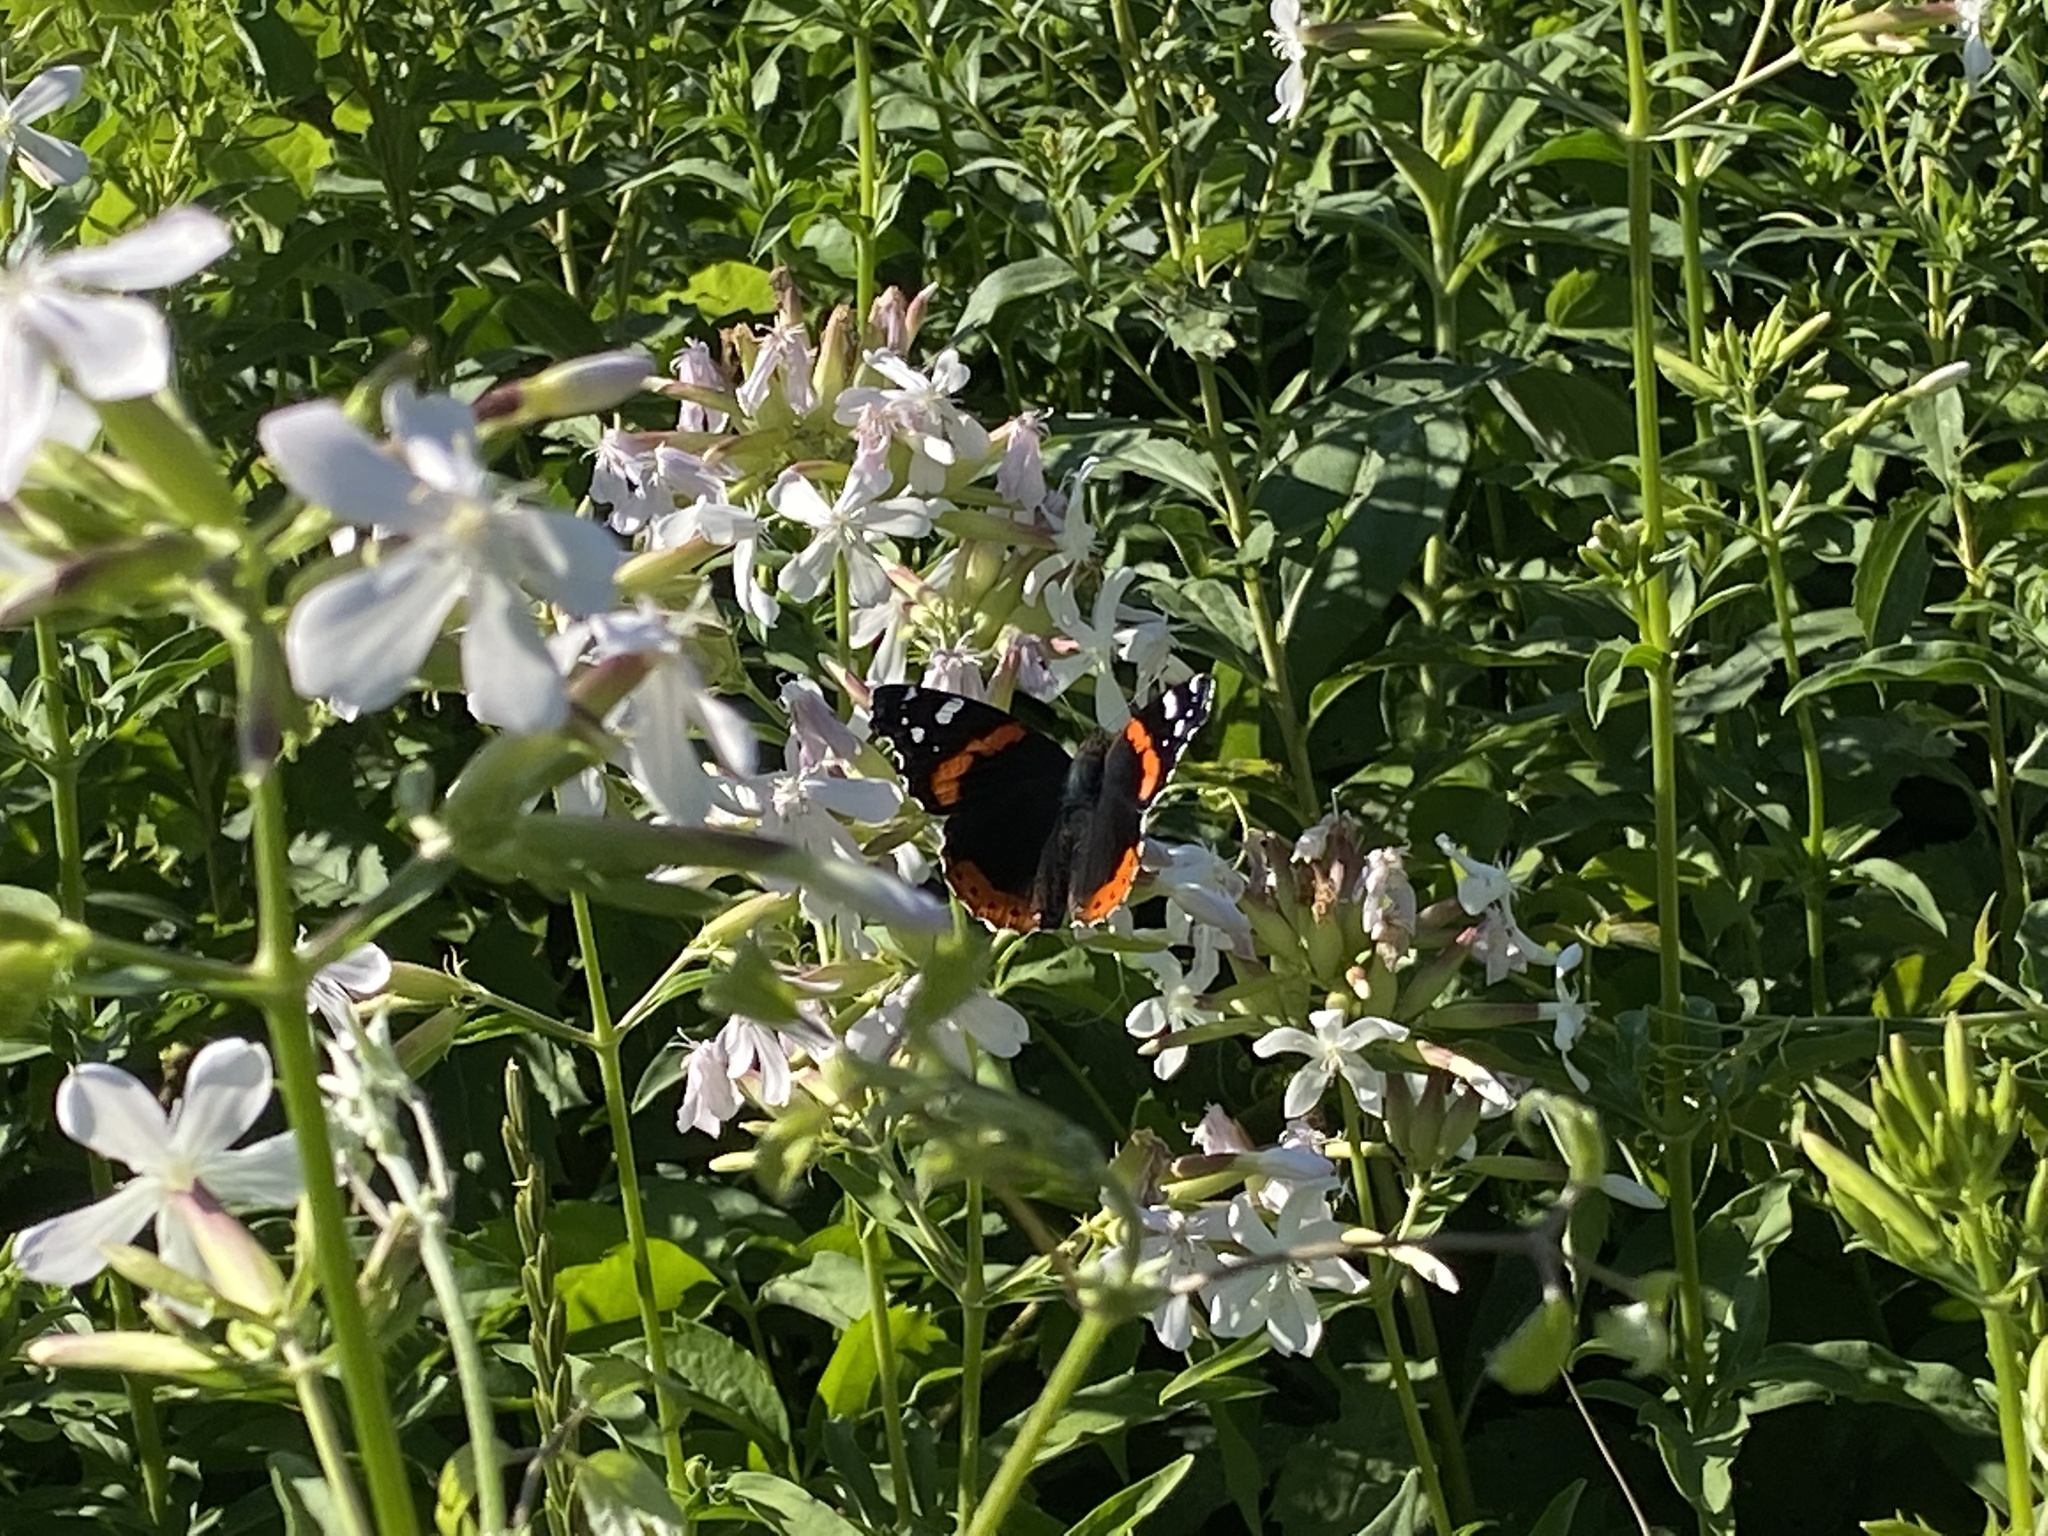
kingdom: Animalia
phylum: Arthropoda
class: Insecta
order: Lepidoptera
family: Nymphalidae
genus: Vanessa
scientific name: Vanessa atalanta
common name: Red admiral
